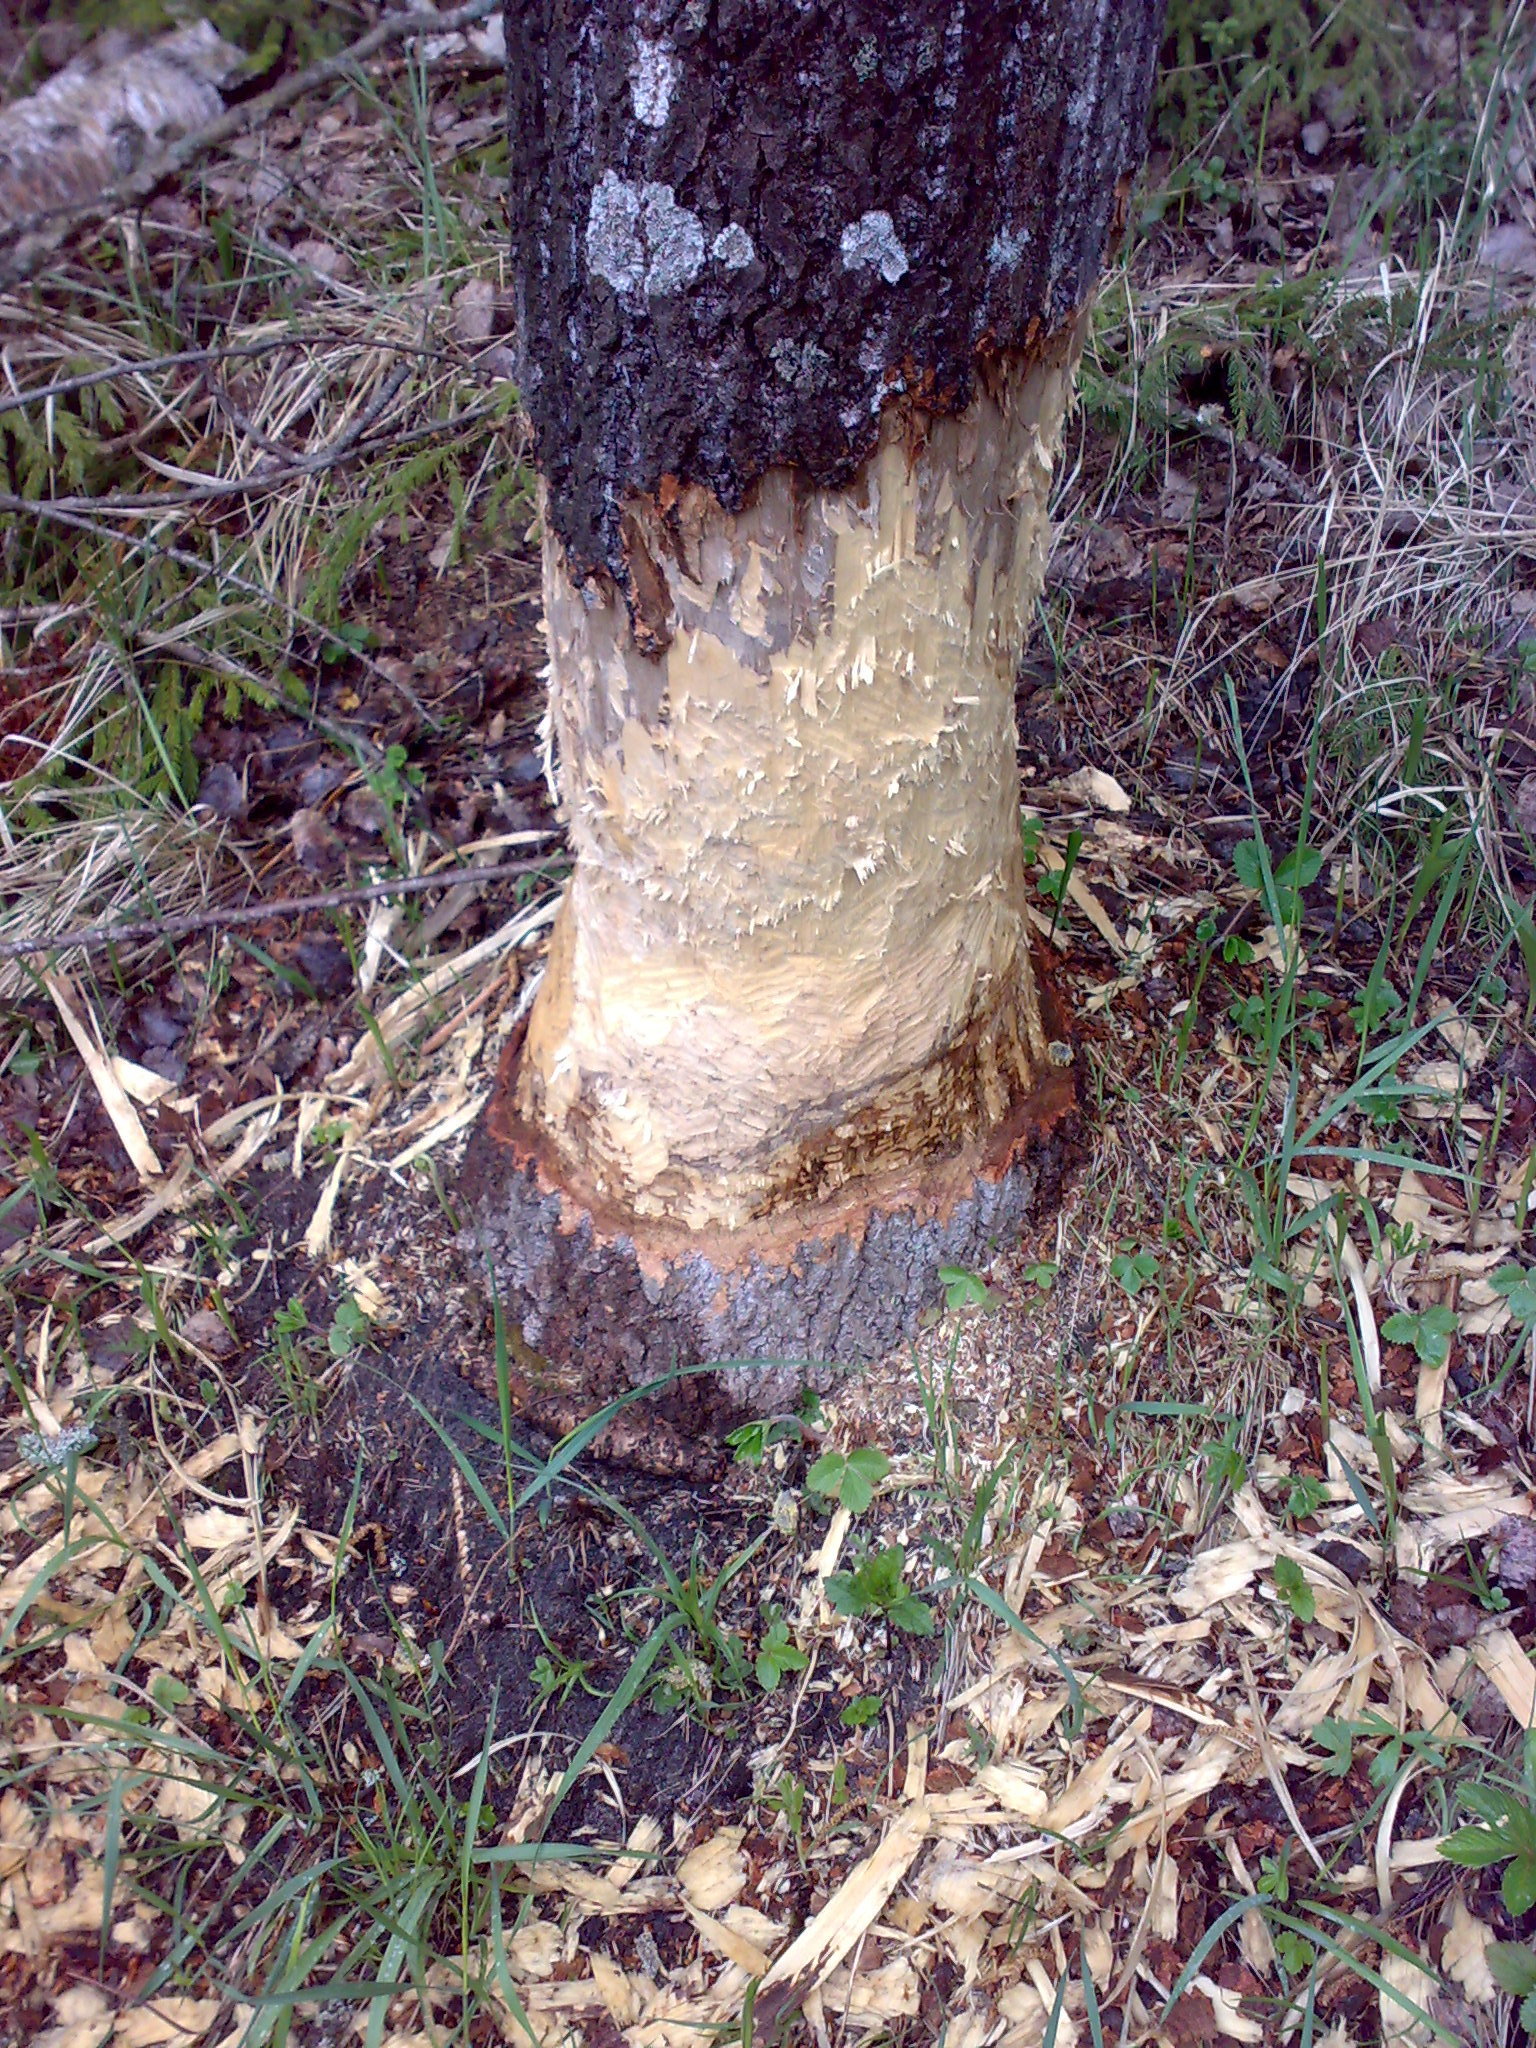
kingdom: Animalia
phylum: Chordata
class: Mammalia
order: Rodentia
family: Castoridae
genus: Castor
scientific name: Castor fiber
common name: Eurasian beaver
